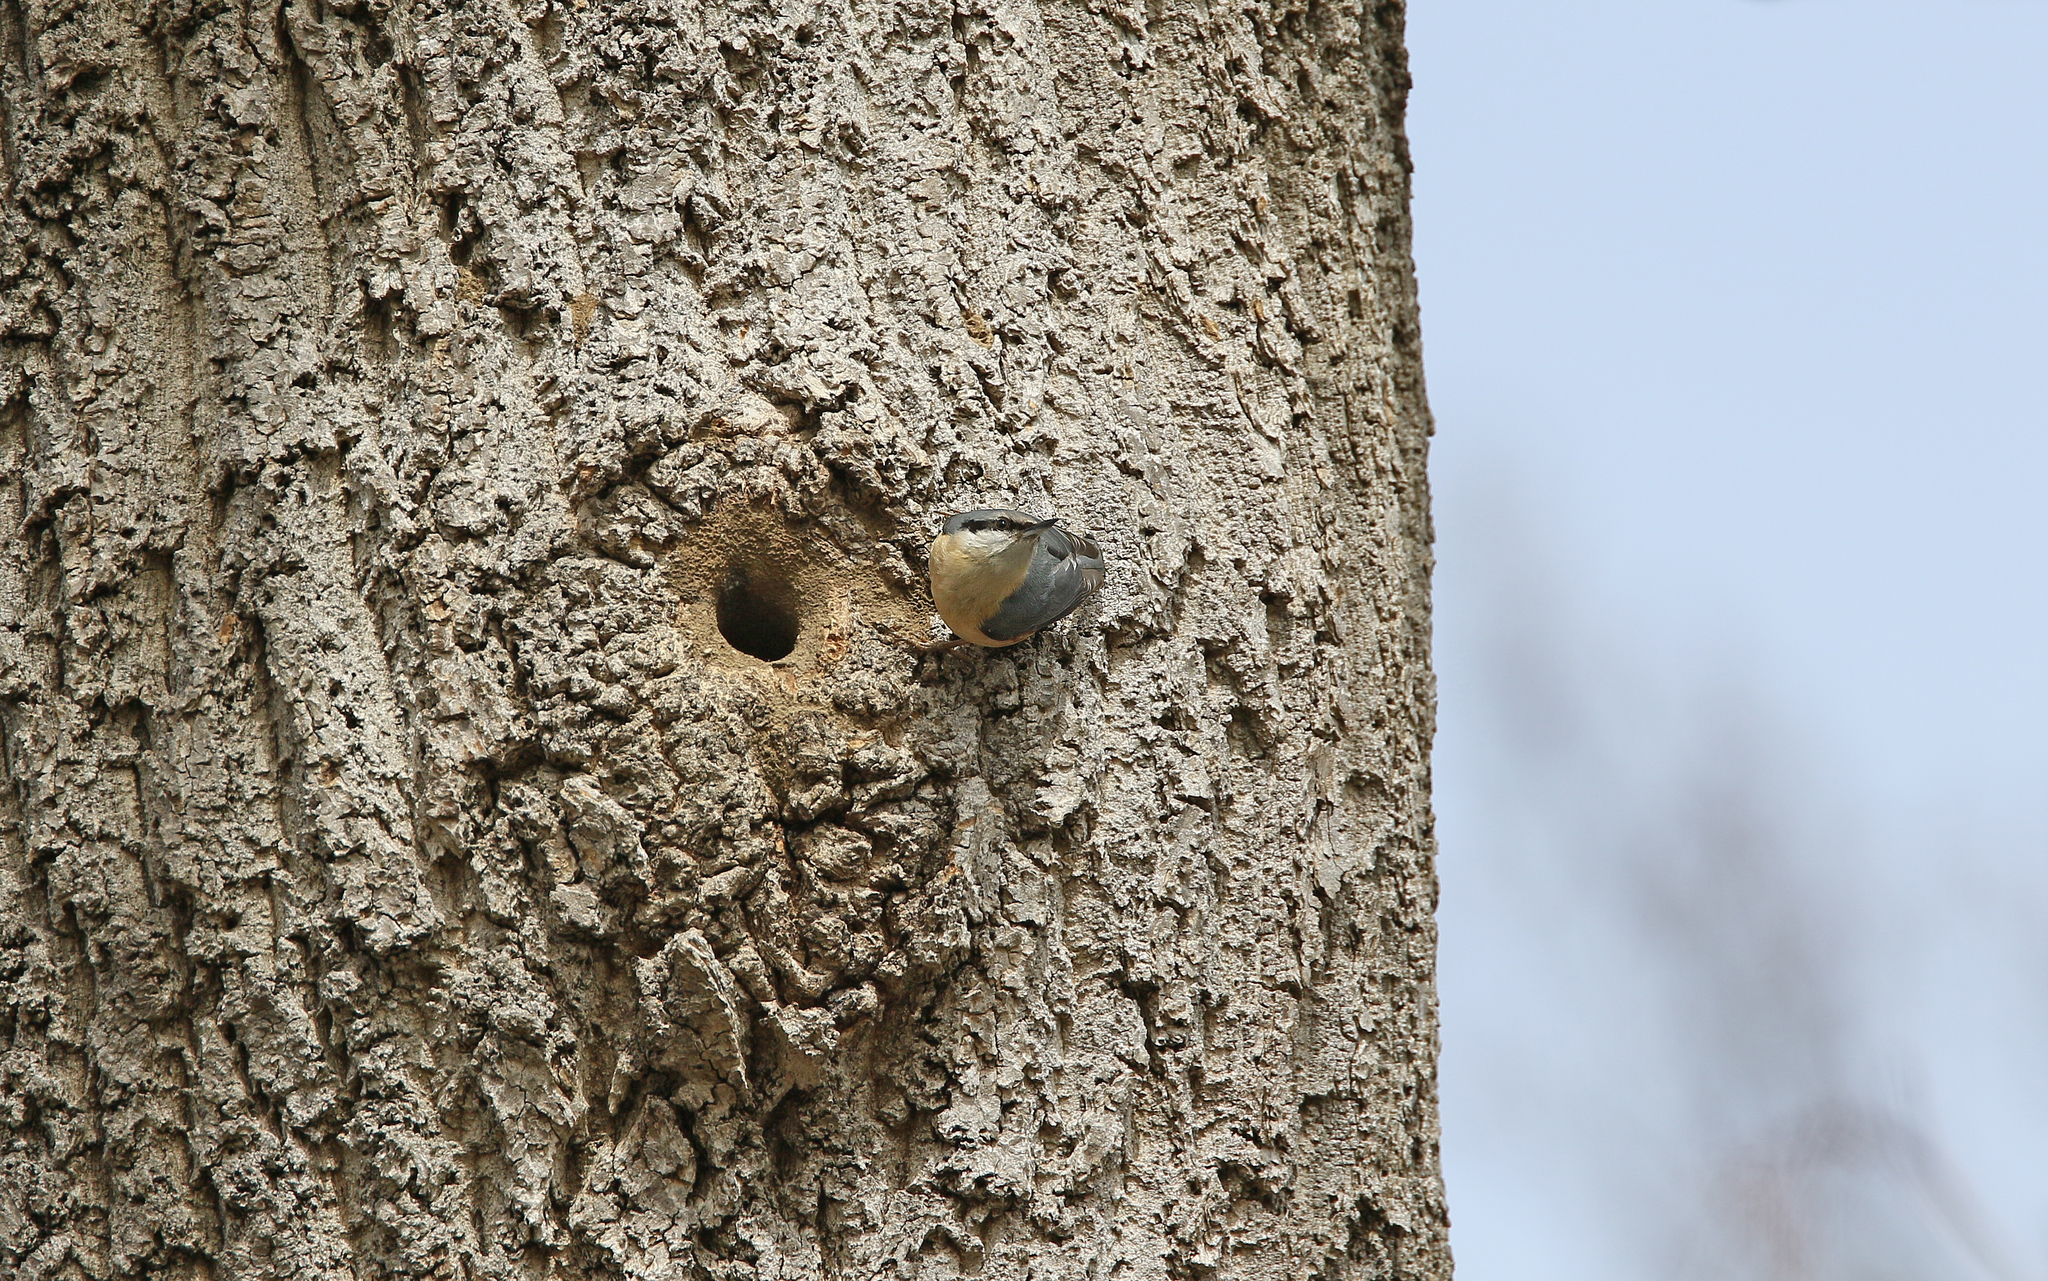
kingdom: Animalia
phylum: Chordata
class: Aves
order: Passeriformes
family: Sittidae
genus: Sitta
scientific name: Sitta europaea
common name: Eurasian nuthatch
